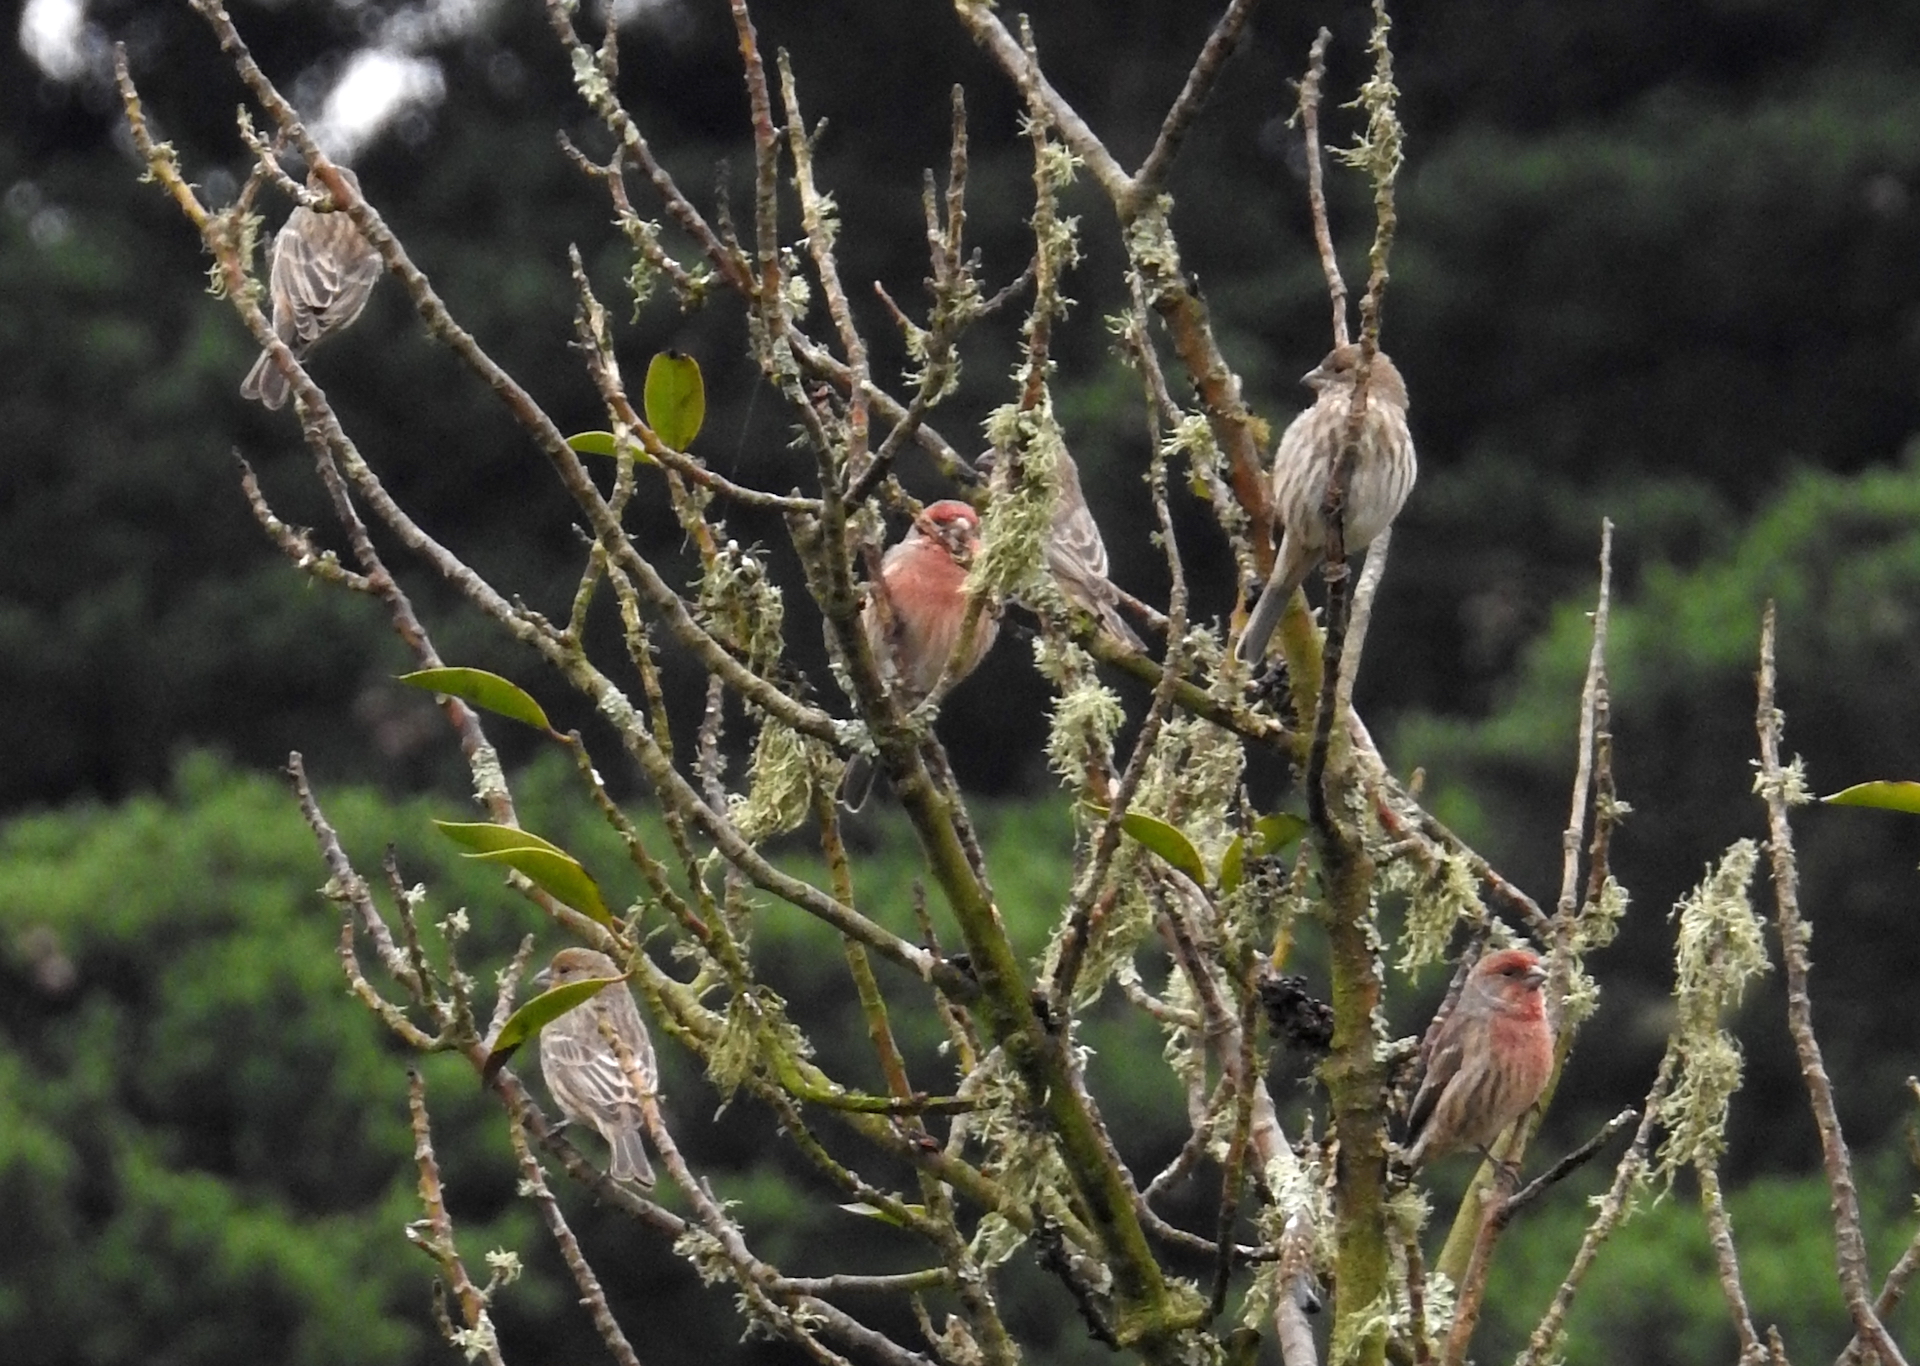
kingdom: Animalia
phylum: Chordata
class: Aves
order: Passeriformes
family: Fringillidae
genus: Haemorhous
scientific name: Haemorhous mexicanus
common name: House finch
